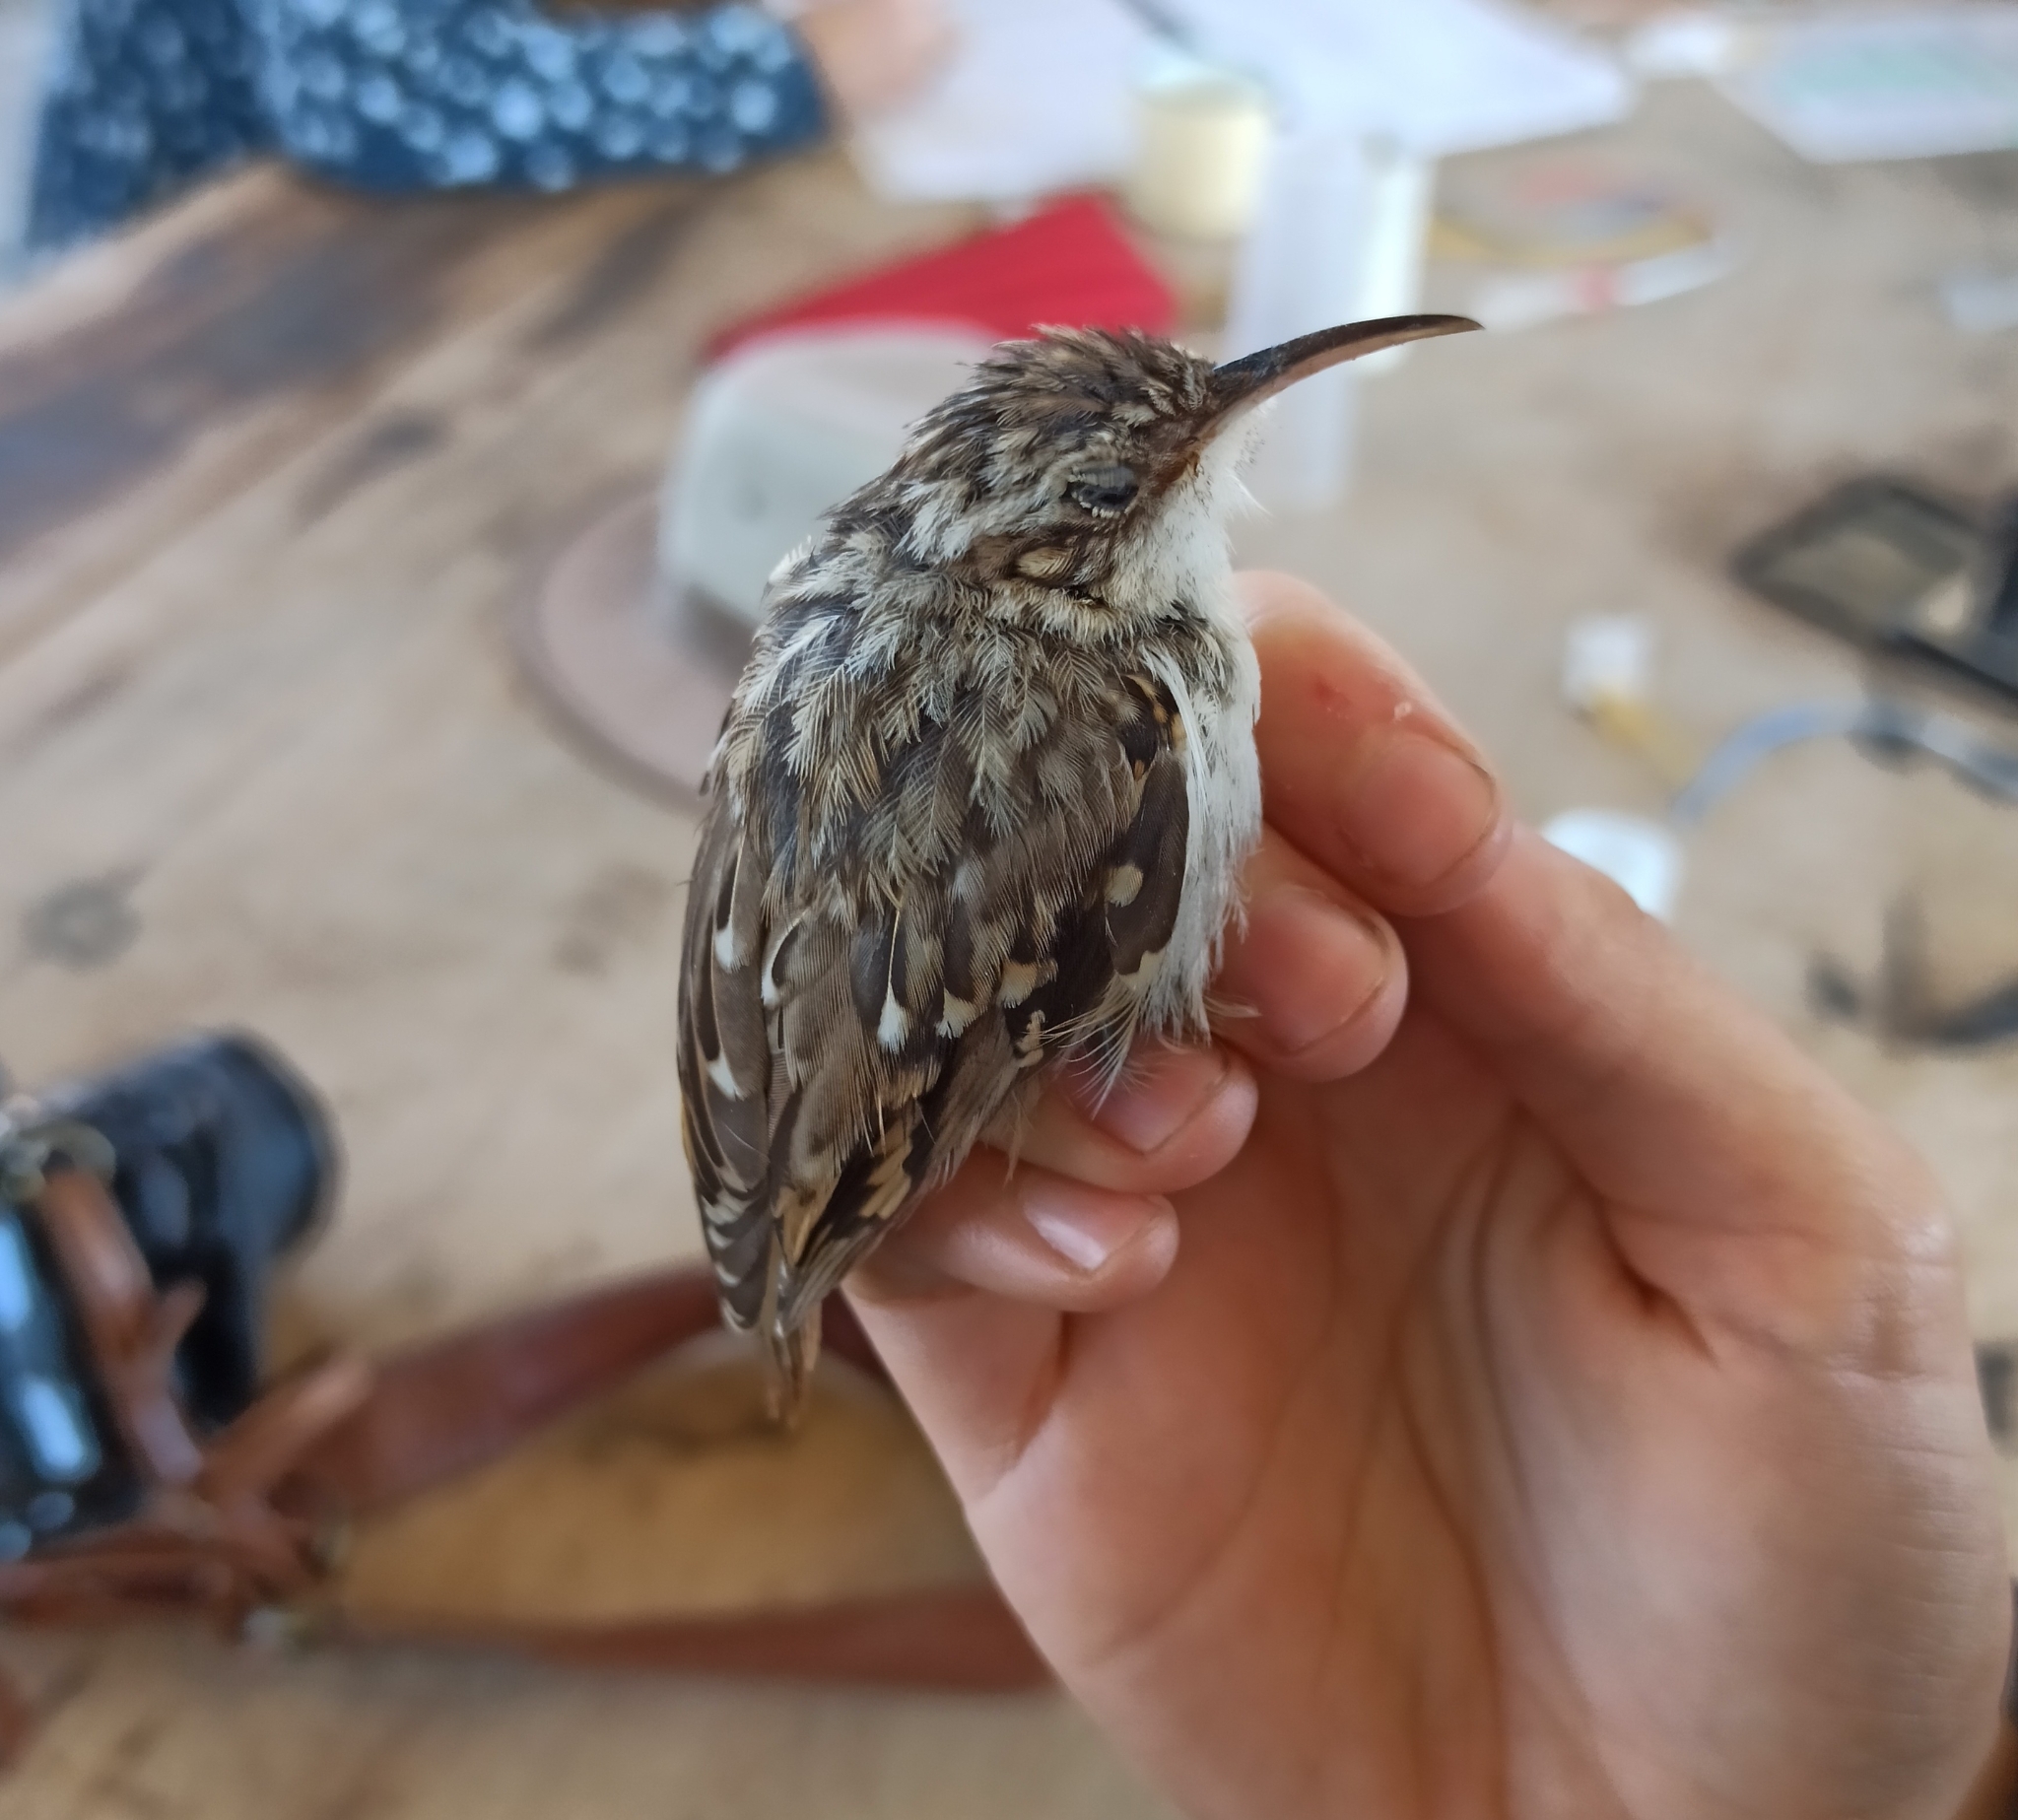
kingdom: Animalia
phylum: Chordata
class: Aves
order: Passeriformes
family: Certhiidae
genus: Certhia
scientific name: Certhia brachydactyla
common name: Short-toed treecreeper
